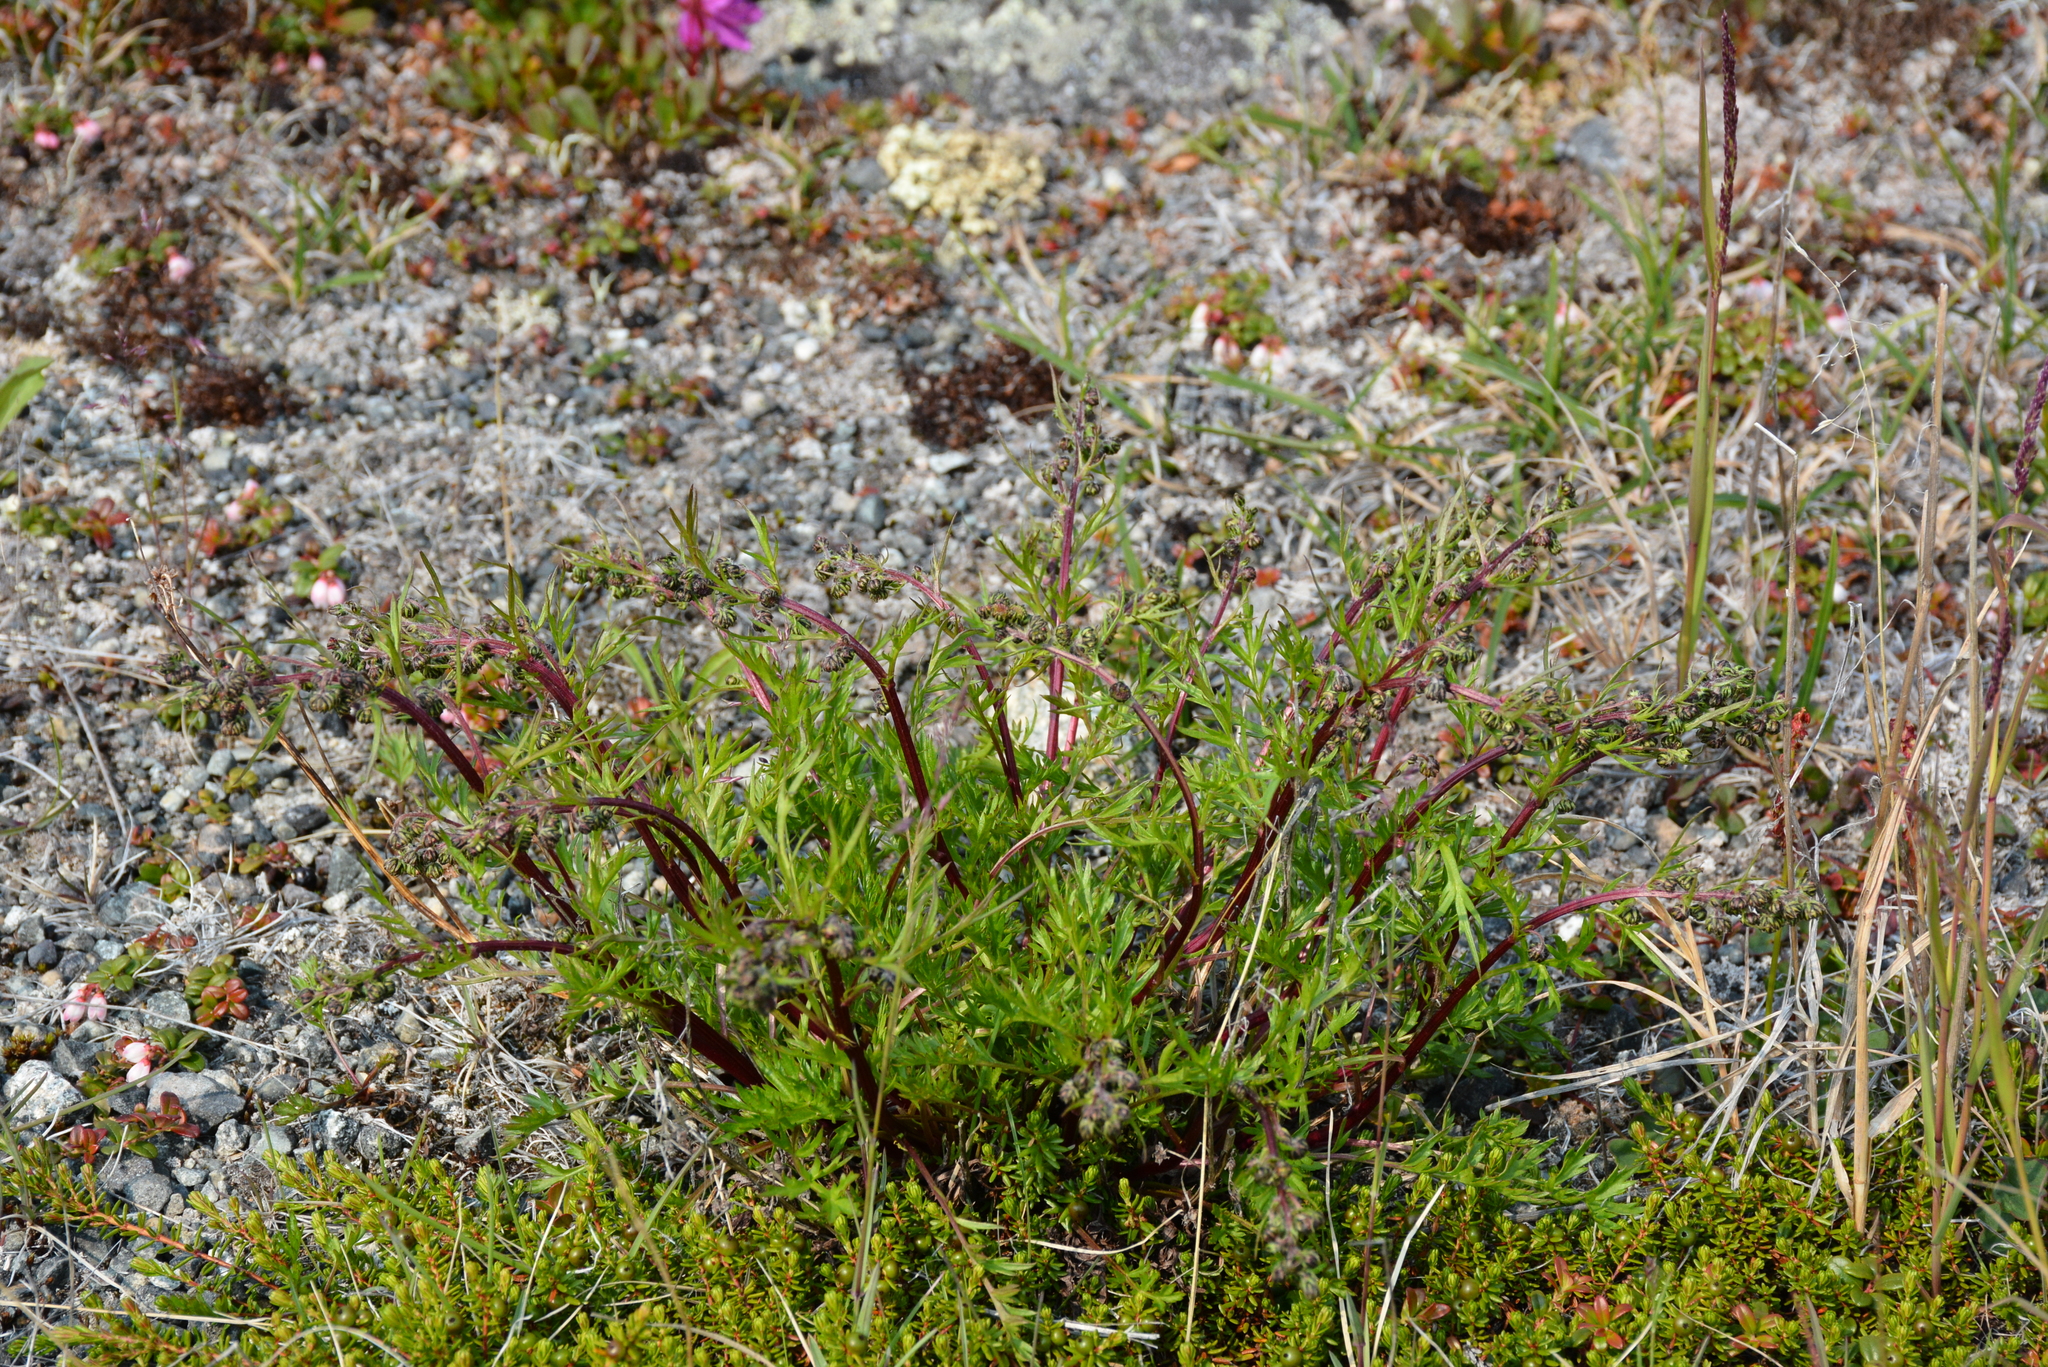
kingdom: Plantae
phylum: Tracheophyta
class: Magnoliopsida
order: Asterales
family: Asteraceae
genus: Artemisia
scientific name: Artemisia arctica
